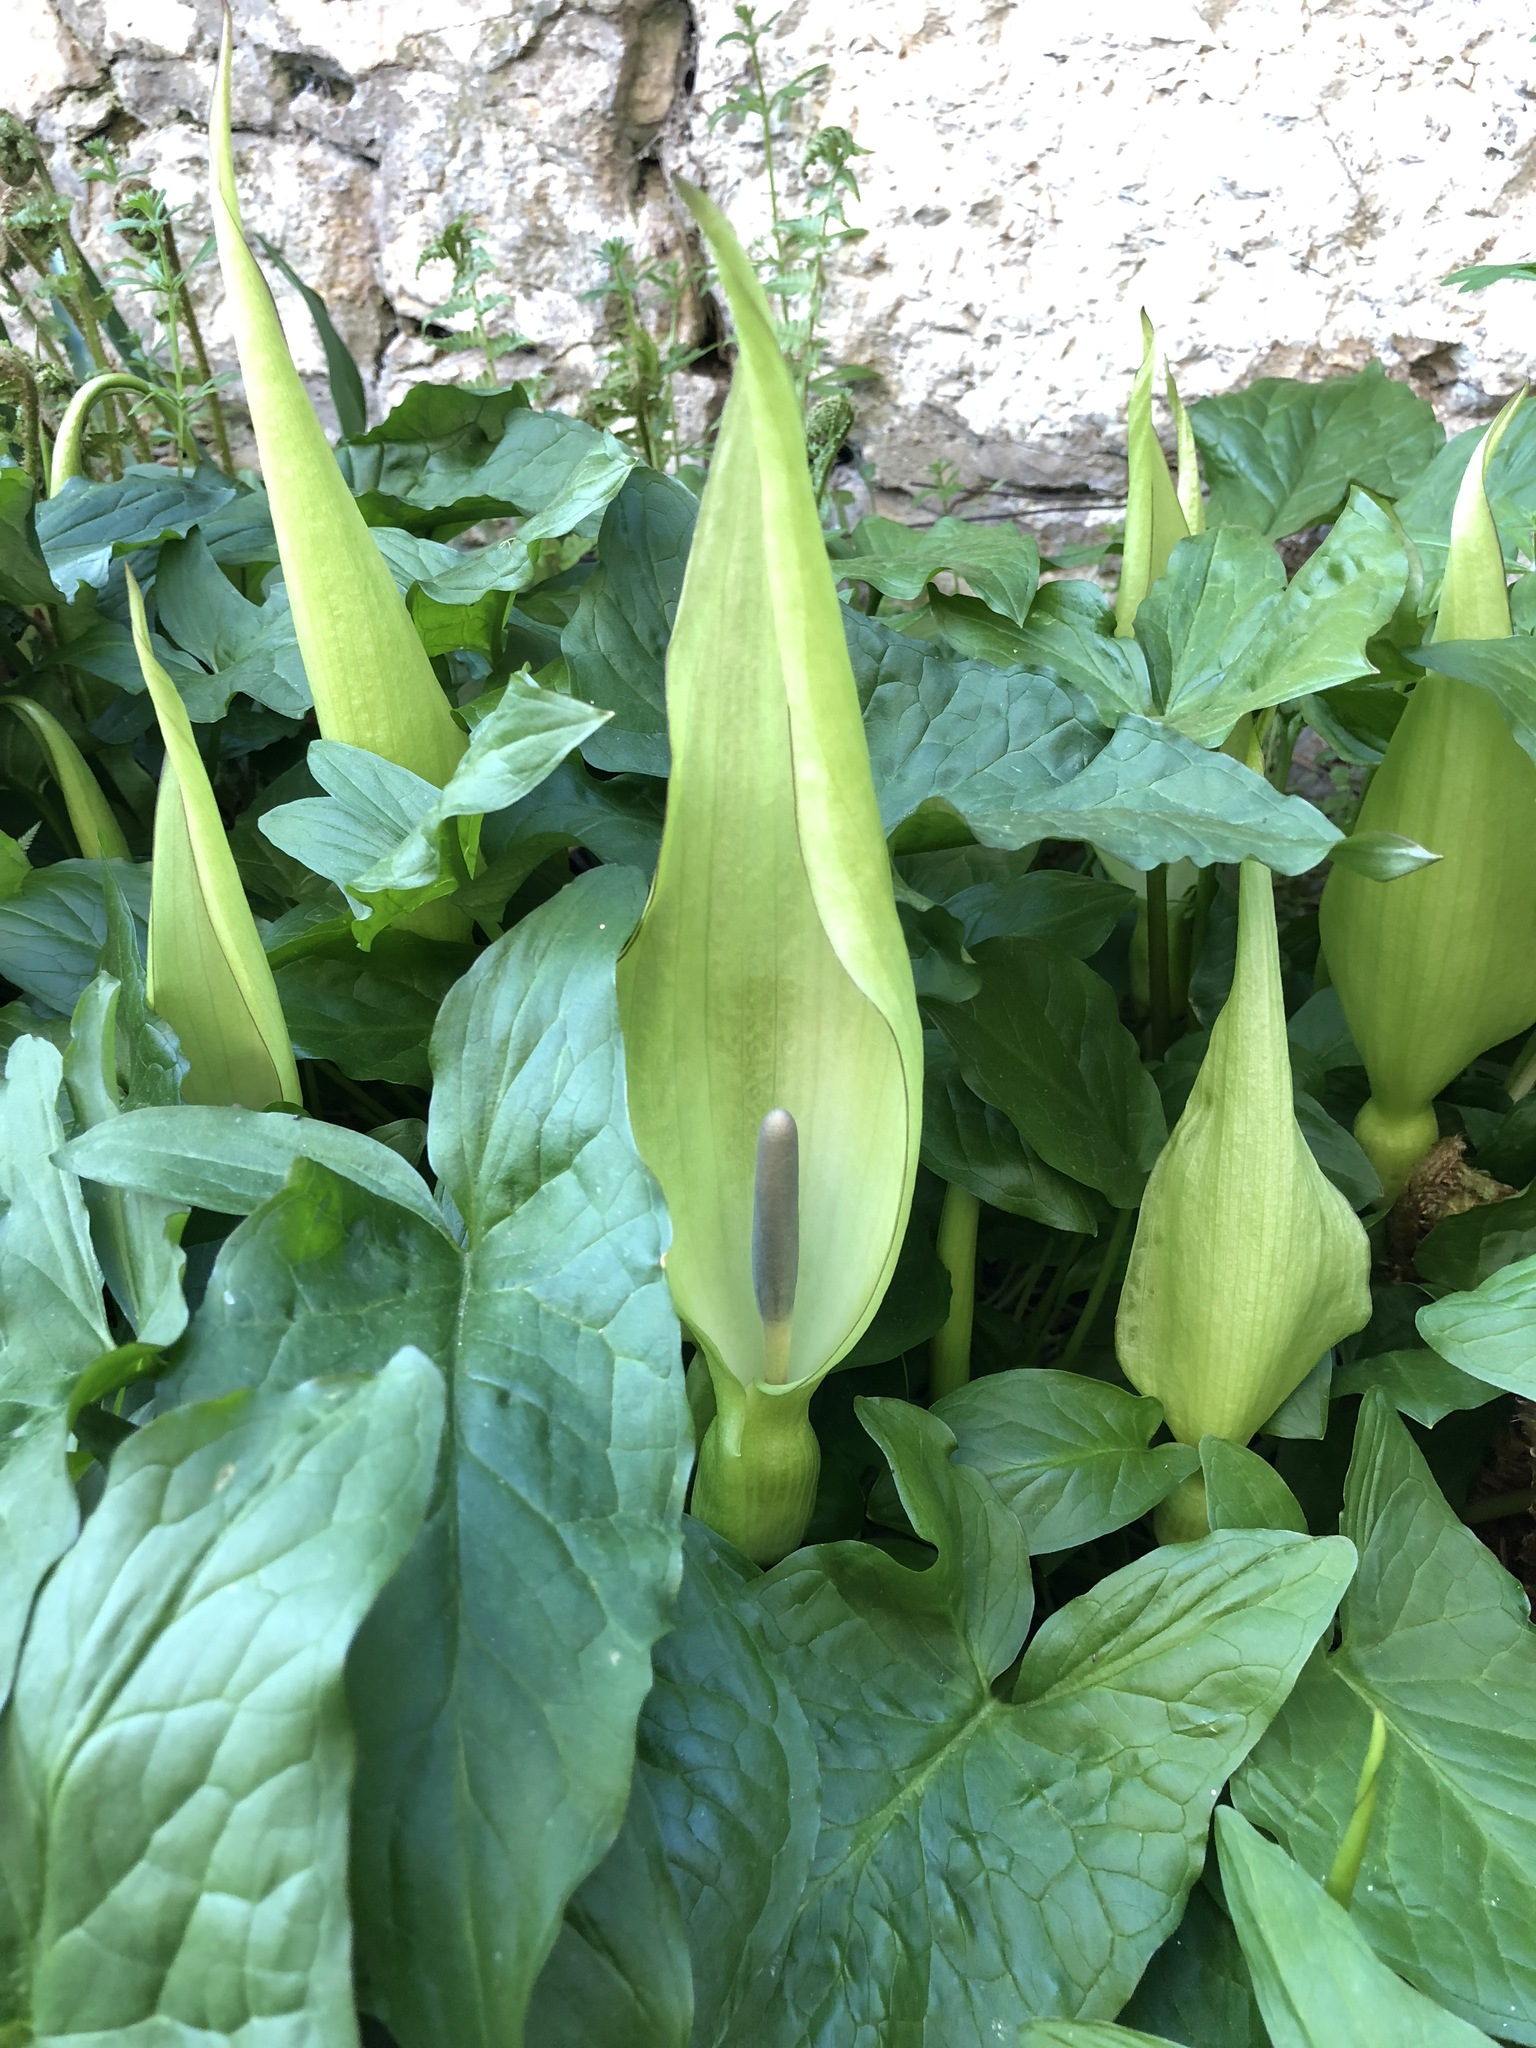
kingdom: Plantae
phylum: Tracheophyta
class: Liliopsida
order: Alismatales
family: Araceae
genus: Arum
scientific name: Arum maculatum
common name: Lords-and-ladies
